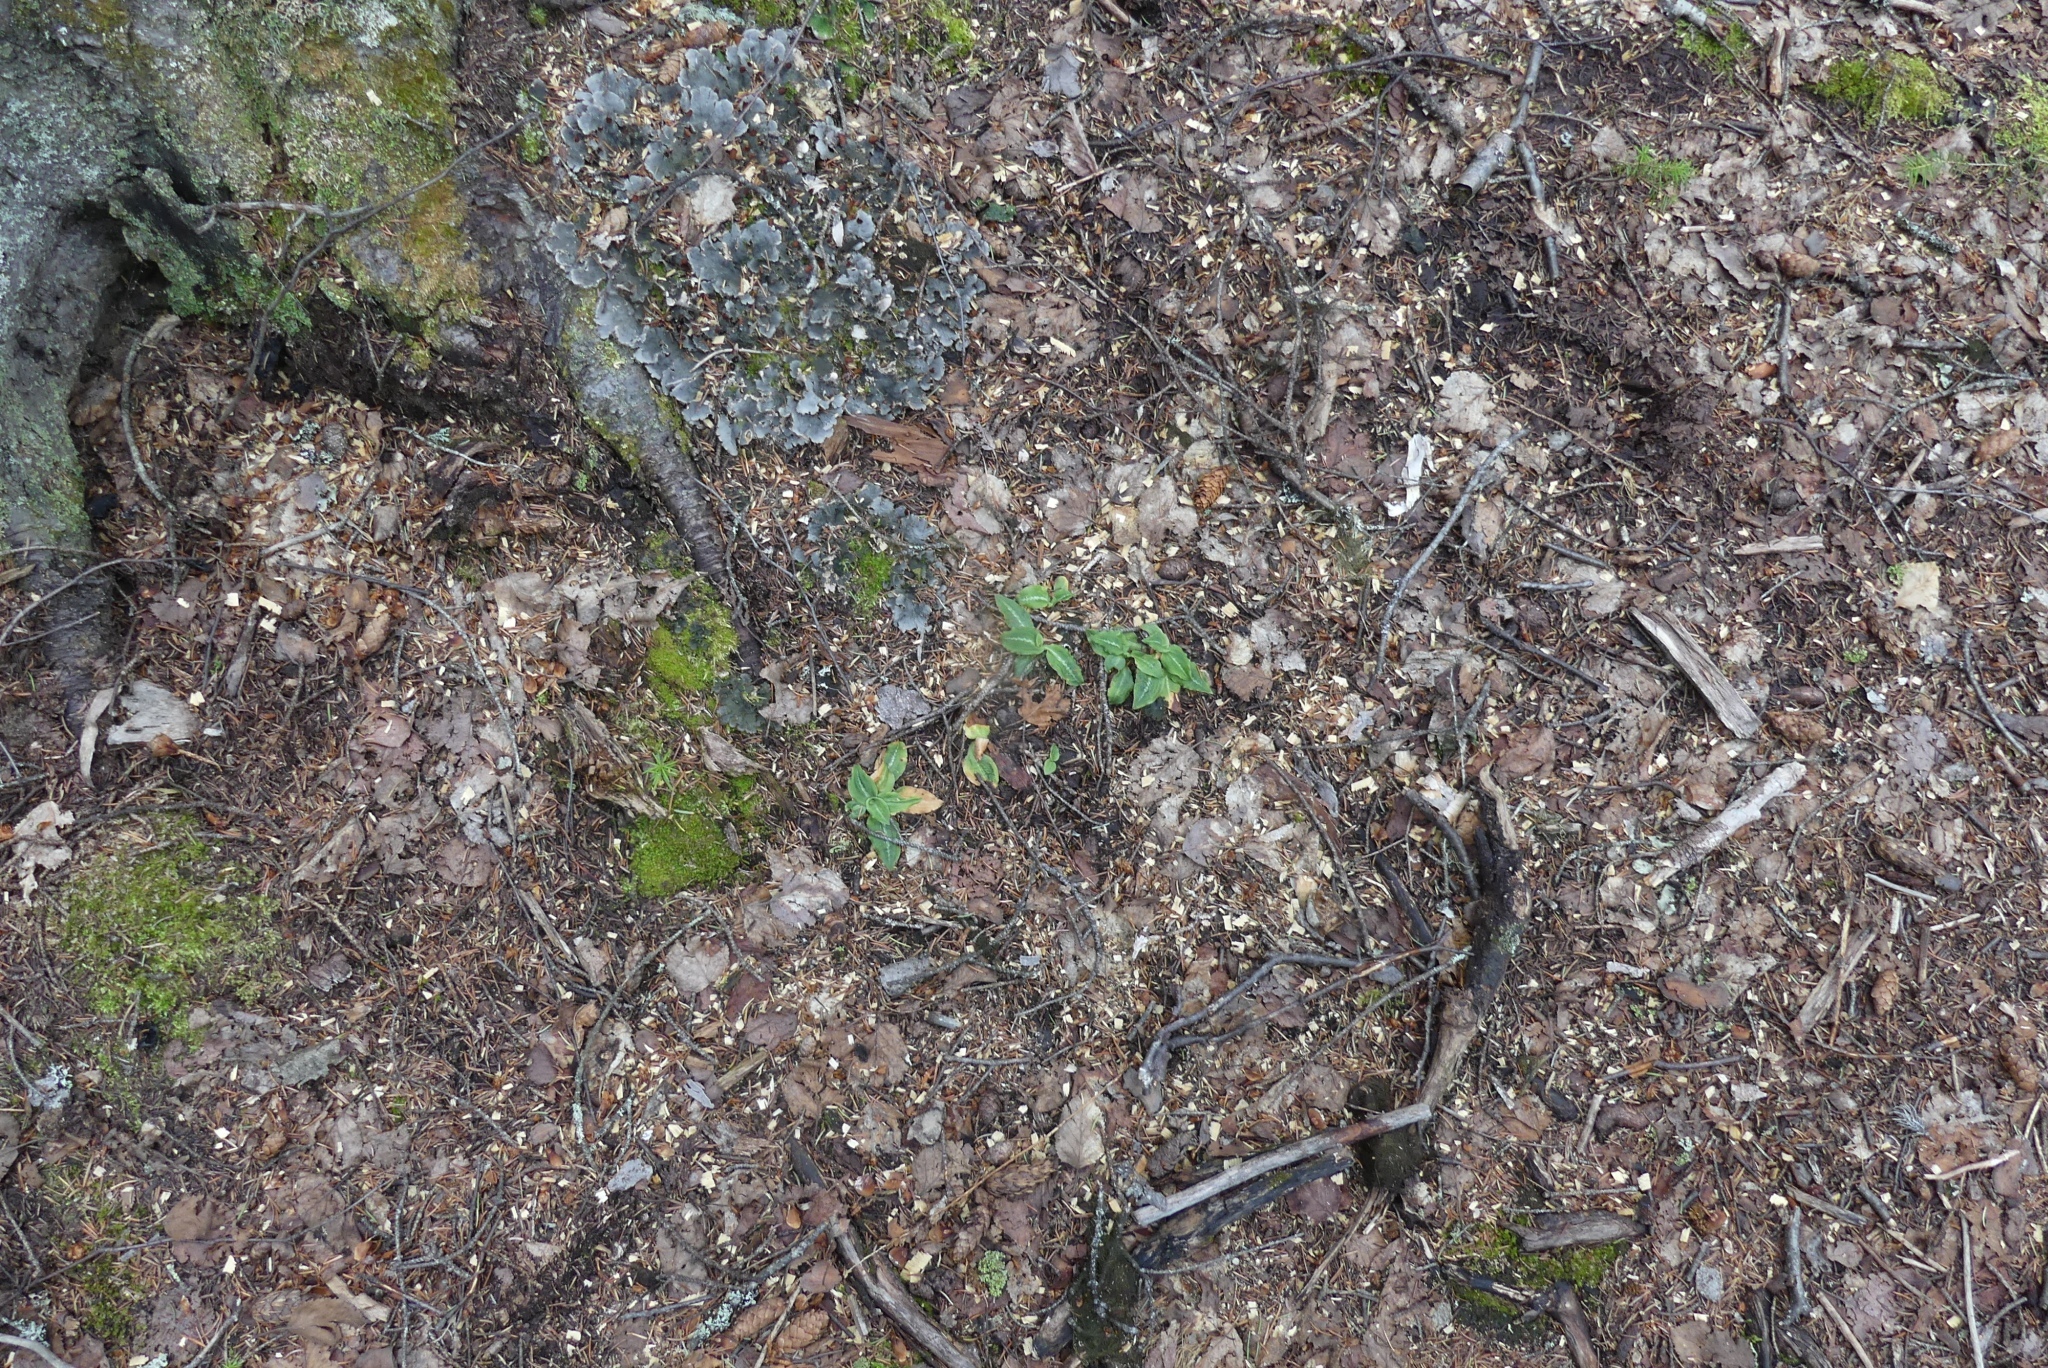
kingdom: Plantae
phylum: Tracheophyta
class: Liliopsida
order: Asparagales
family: Orchidaceae
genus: Goodyera
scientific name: Goodyera oblongifolia
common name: Giant rattlesnake-plantain
